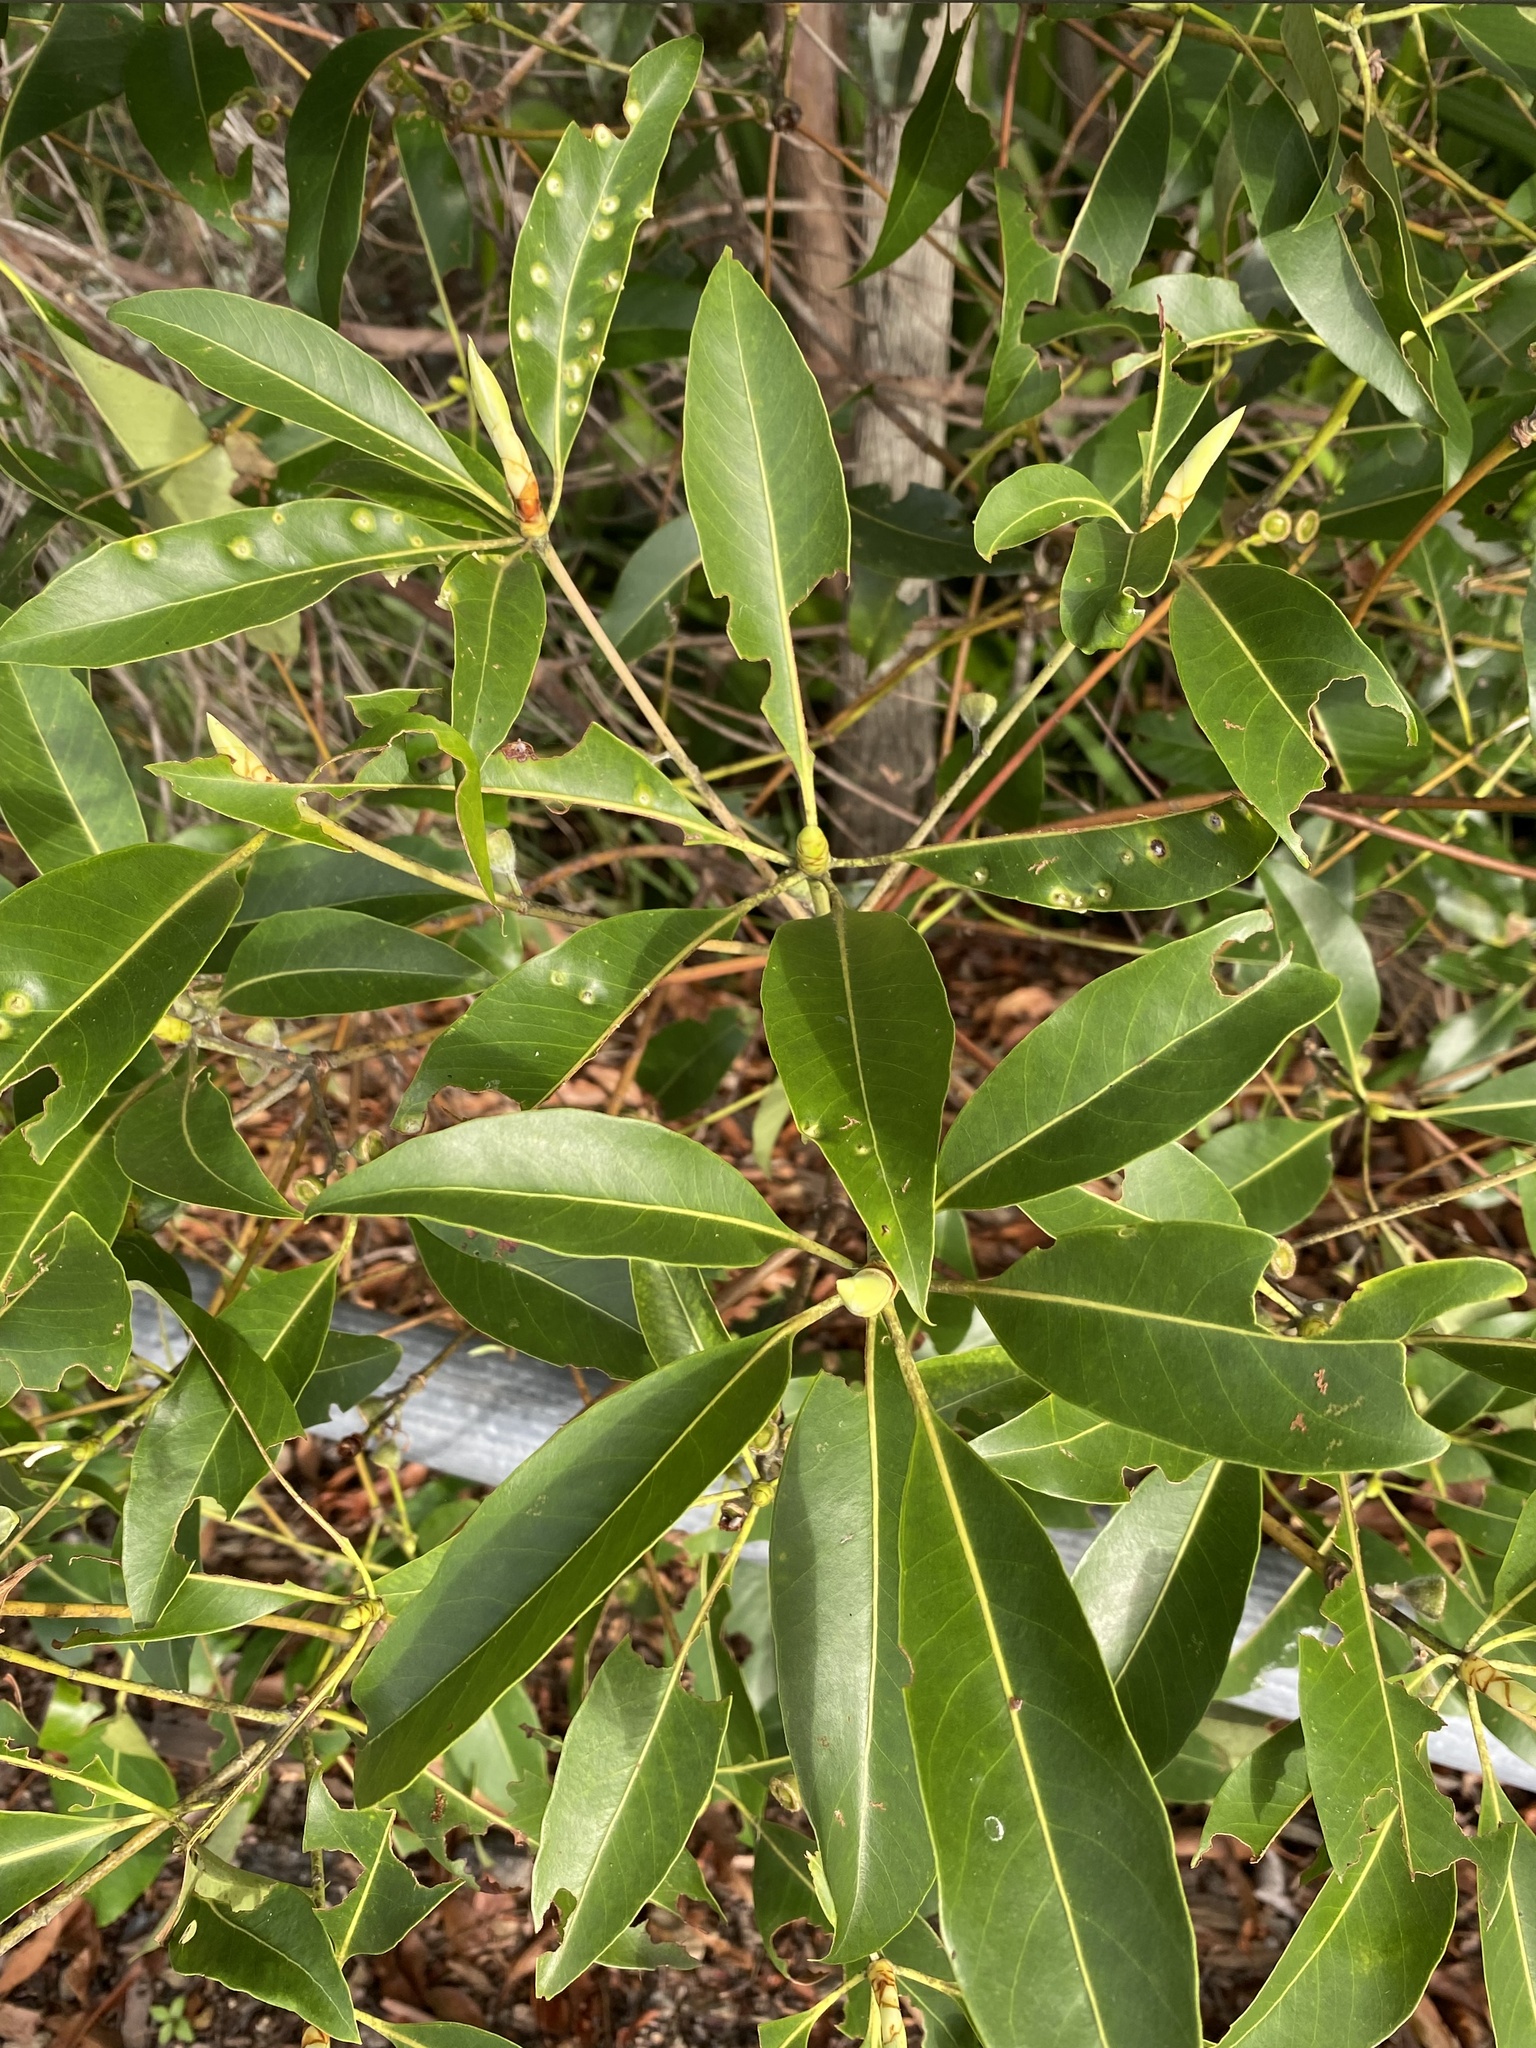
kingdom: Plantae
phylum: Tracheophyta
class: Magnoliopsida
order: Myrtales
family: Myrtaceae
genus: Lophostemon
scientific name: Lophostemon confertus
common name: Brisbane box
